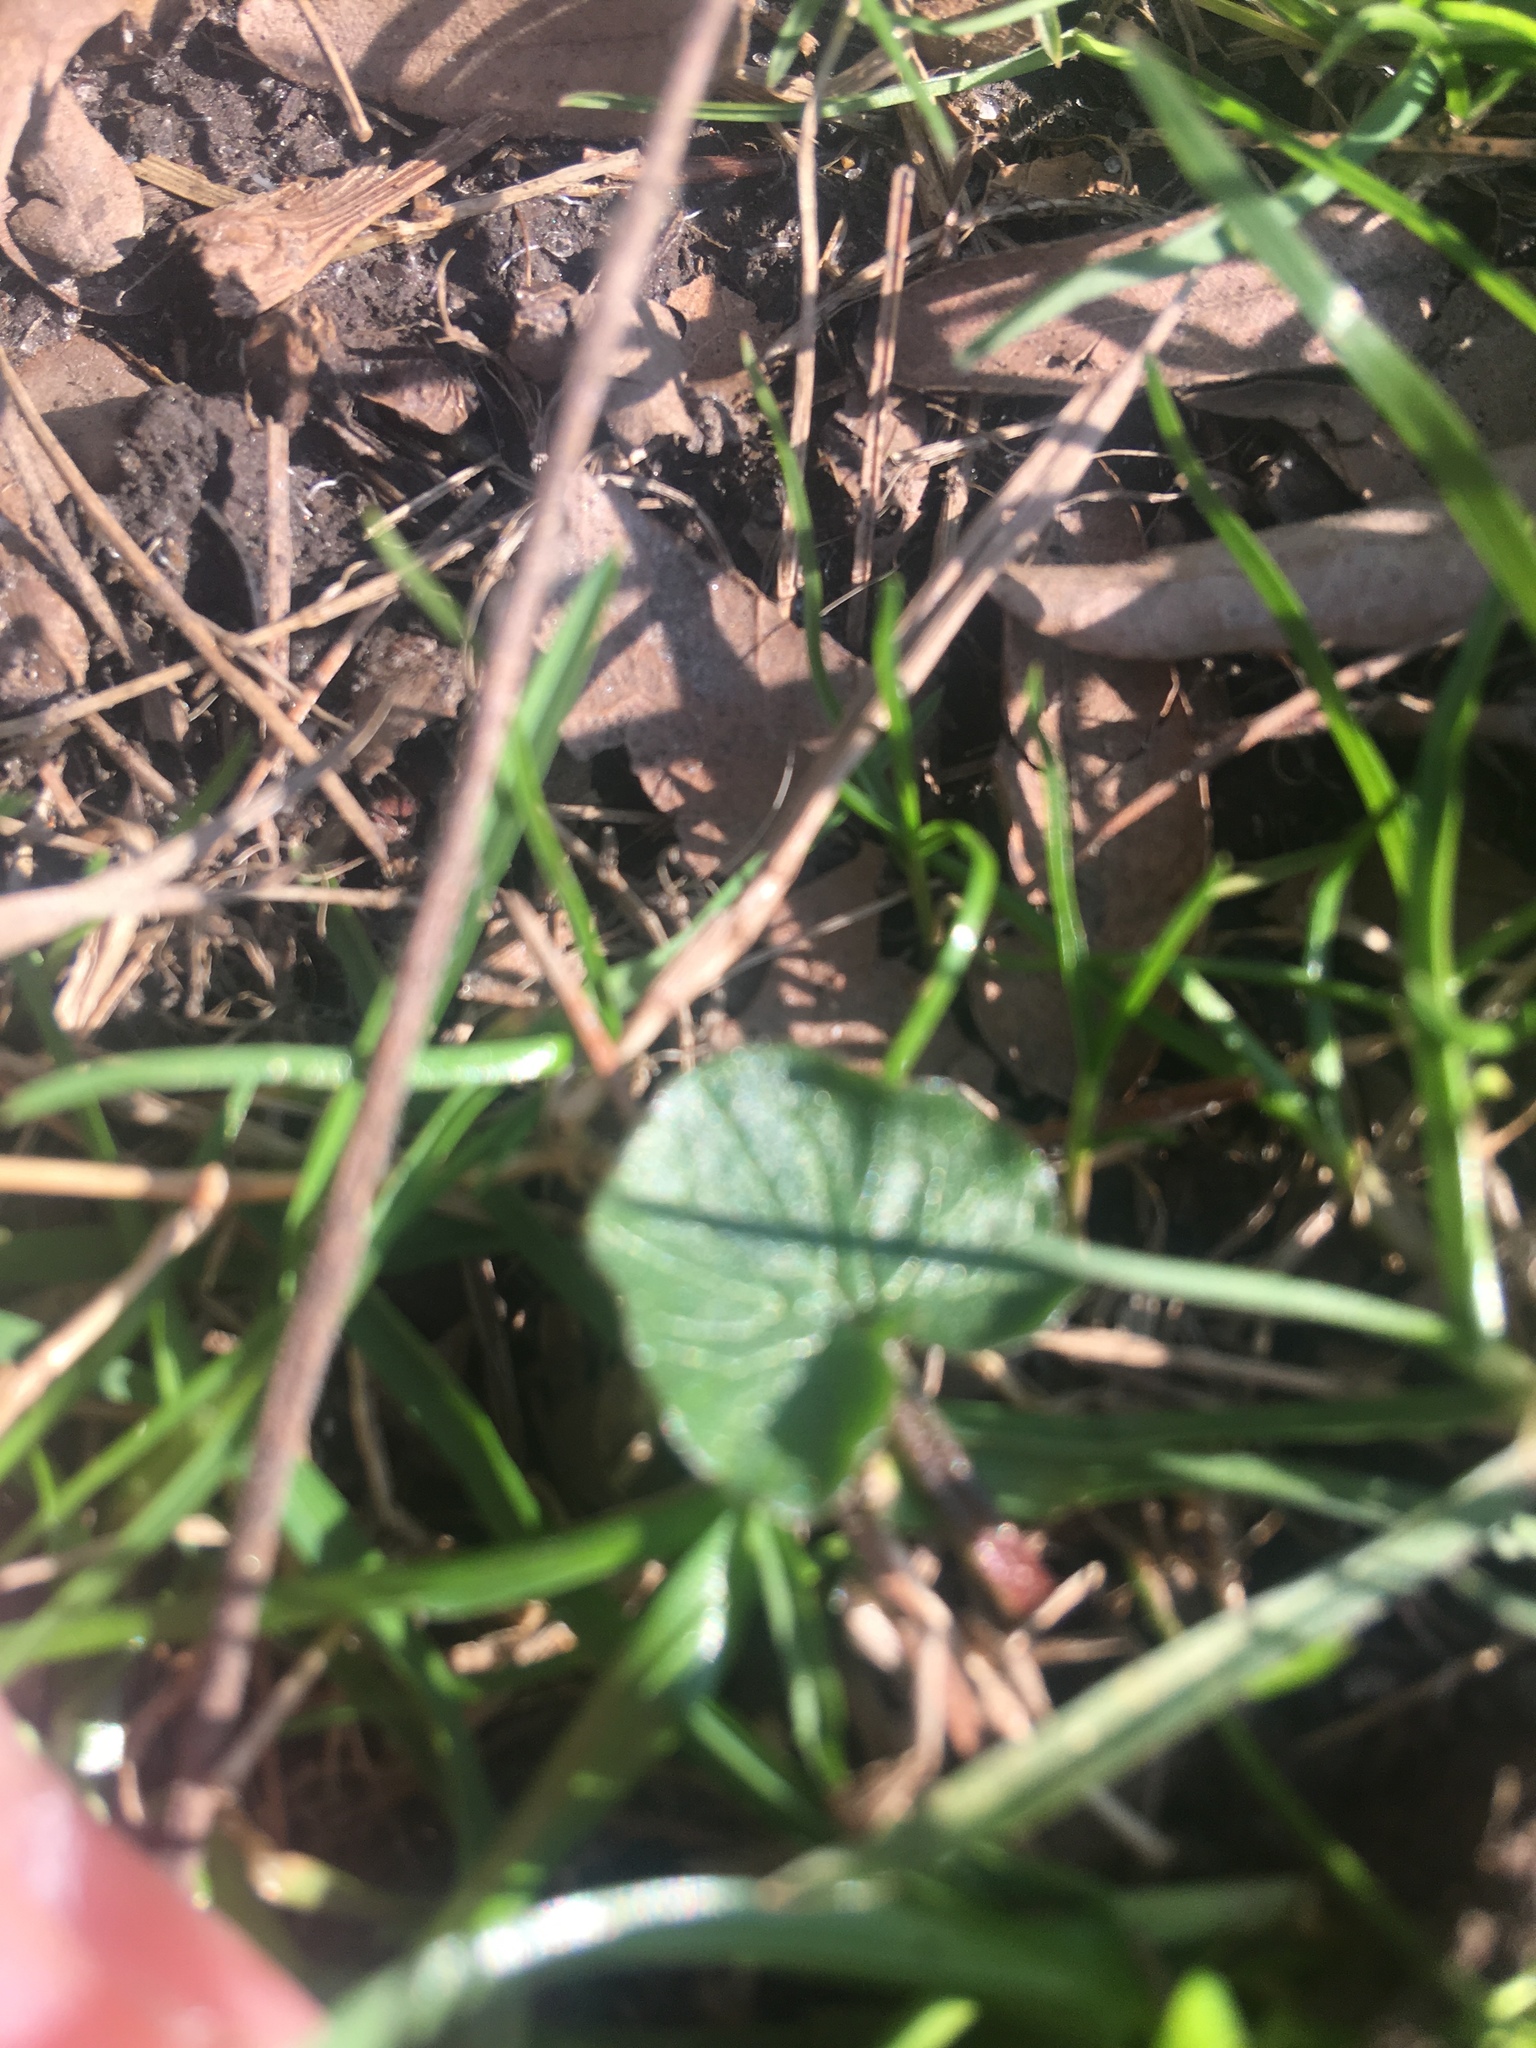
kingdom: Plantae
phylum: Tracheophyta
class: Magnoliopsida
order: Ranunculales
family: Ranunculaceae
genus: Ficaria
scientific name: Ficaria verna
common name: Lesser celandine
